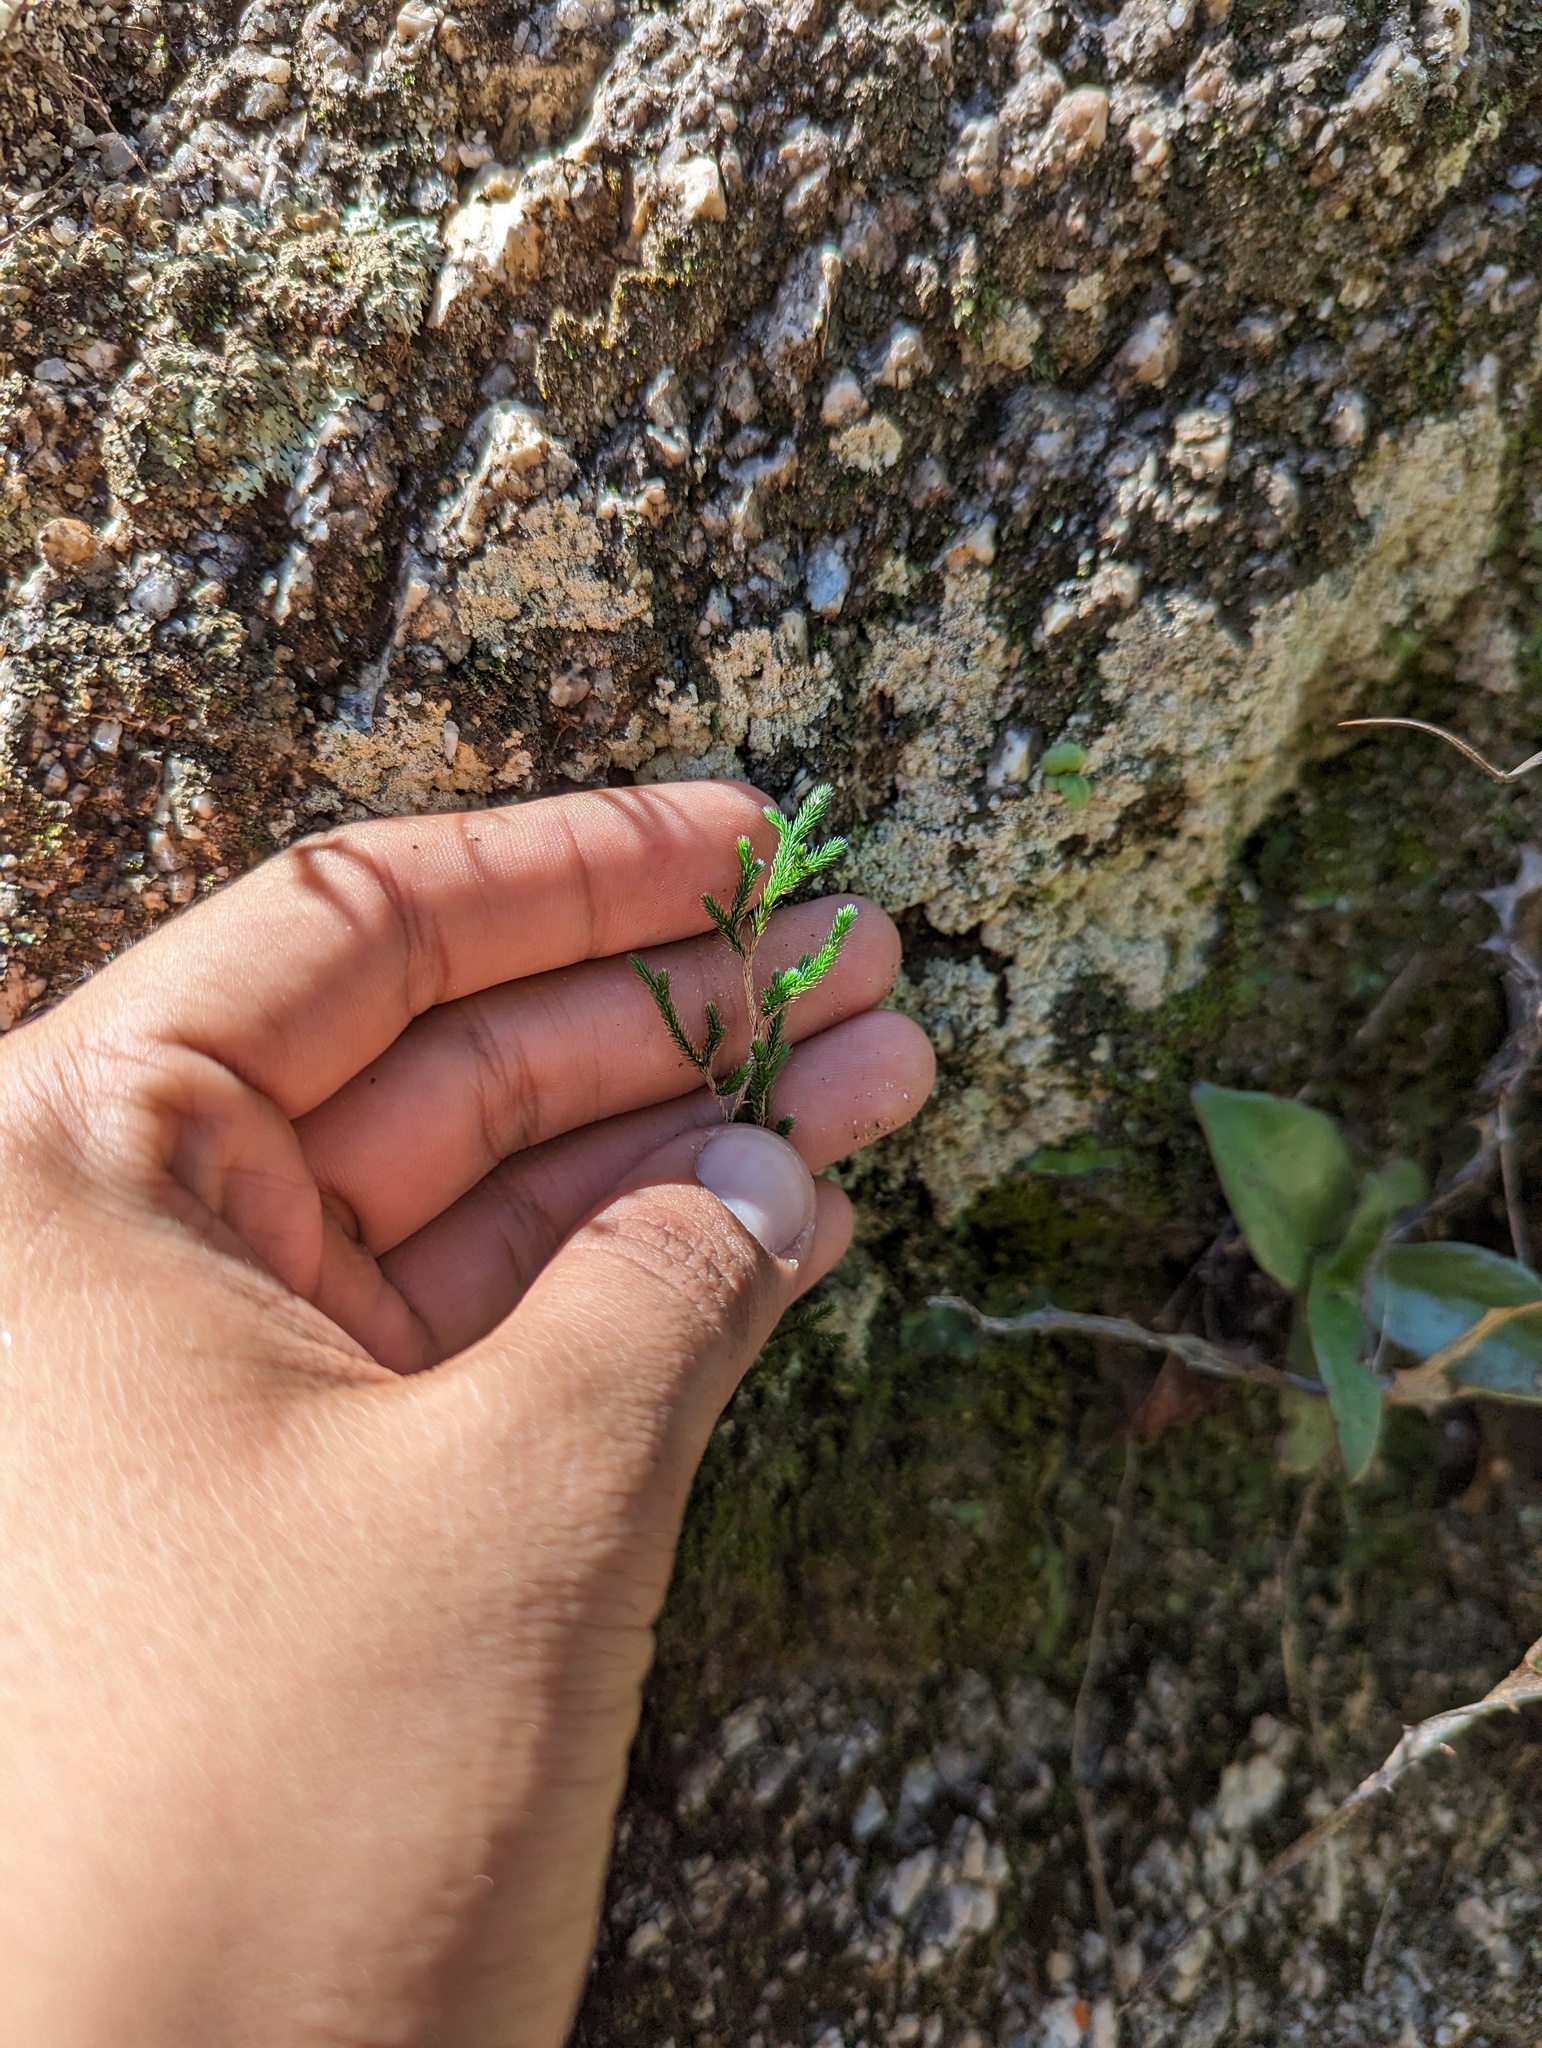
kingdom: Plantae
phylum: Tracheophyta
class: Lycopodiopsida
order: Selaginellales
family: Selaginellaceae
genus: Selaginella
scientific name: Selaginella bigelovii
